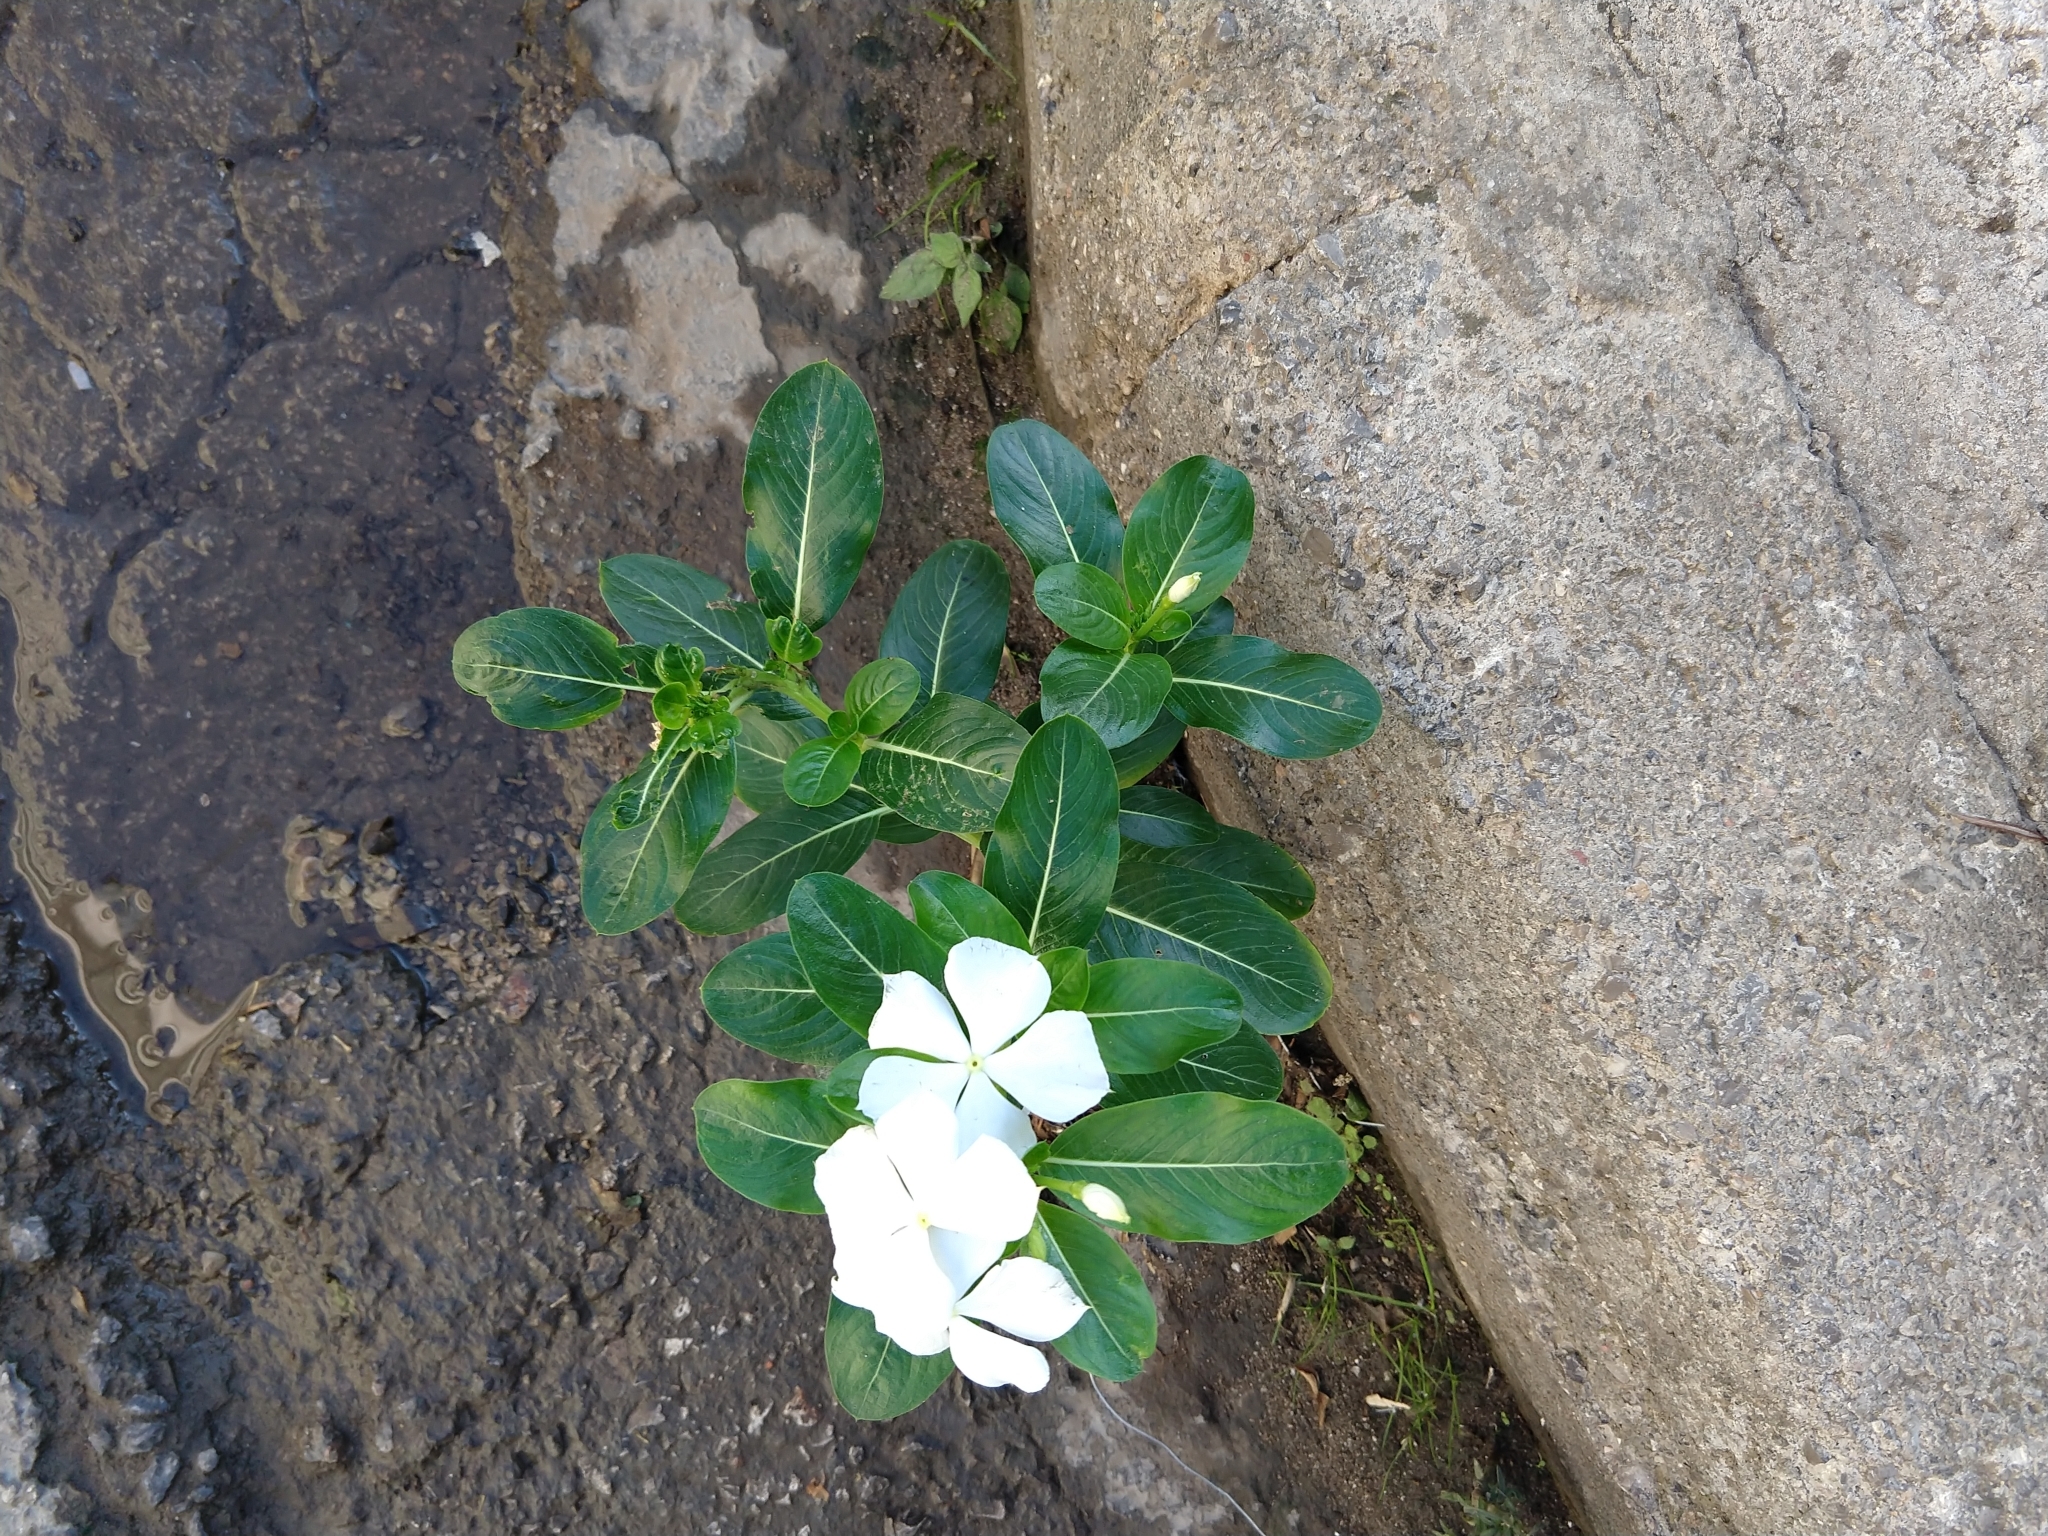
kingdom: Plantae
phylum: Tracheophyta
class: Magnoliopsida
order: Gentianales
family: Apocynaceae
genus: Catharanthus
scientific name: Catharanthus roseus
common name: Madagascar periwinkle
